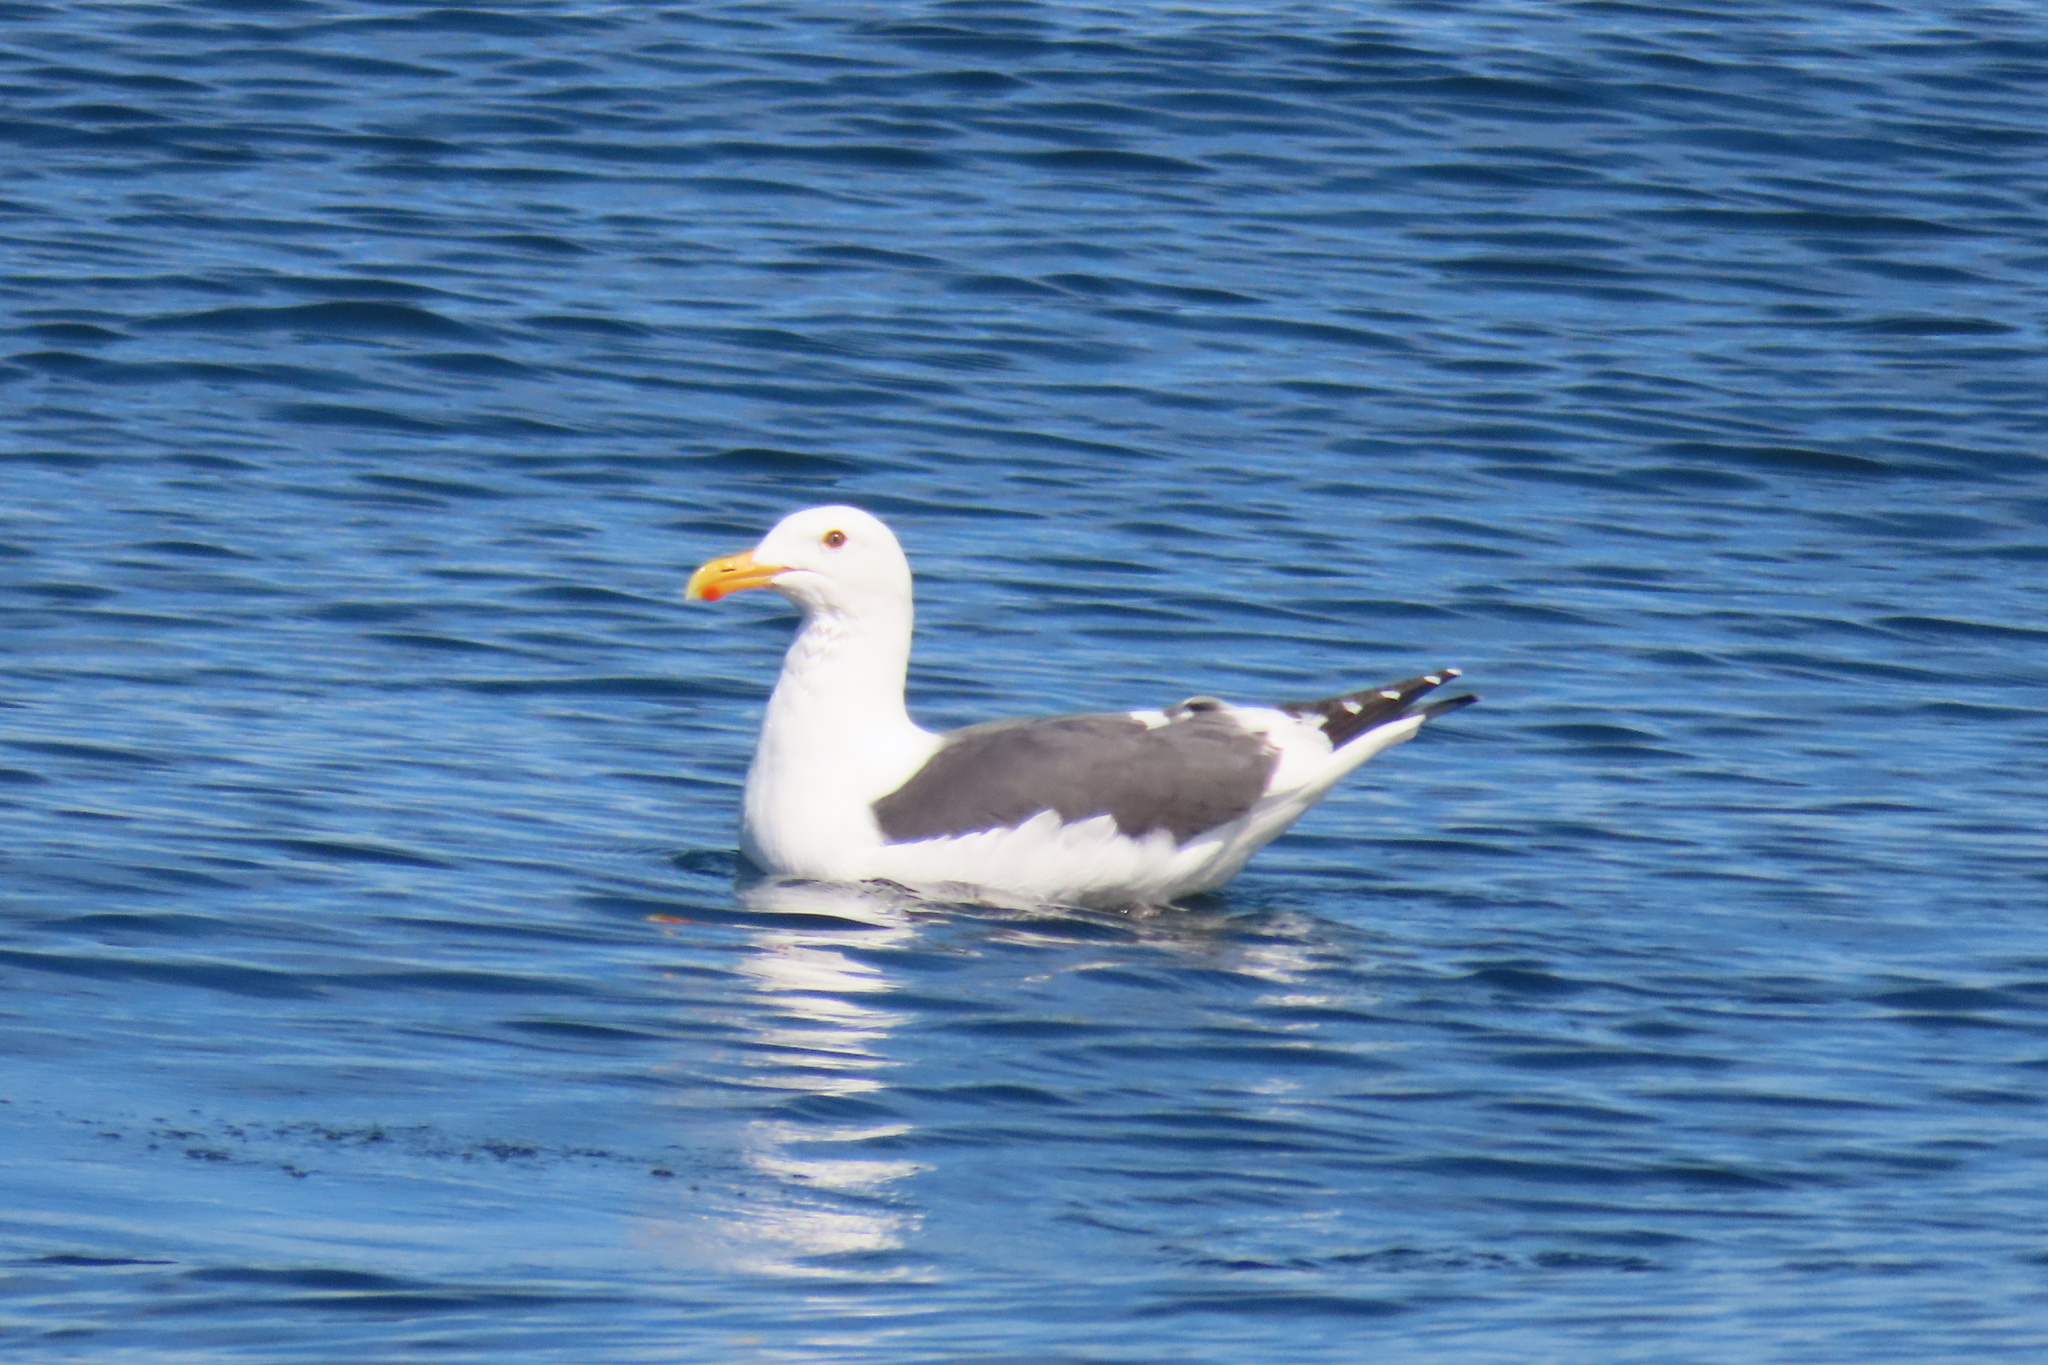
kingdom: Animalia
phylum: Chordata
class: Aves
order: Charadriiformes
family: Laridae
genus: Larus
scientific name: Larus occidentalis
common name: Western gull
